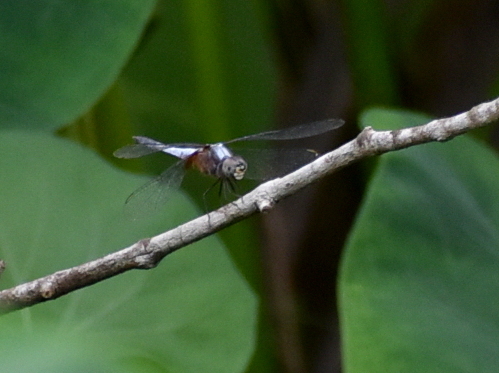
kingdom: Animalia
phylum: Arthropoda
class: Insecta
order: Odonata
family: Libellulidae
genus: Brachydiplax
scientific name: Brachydiplax chalybea
